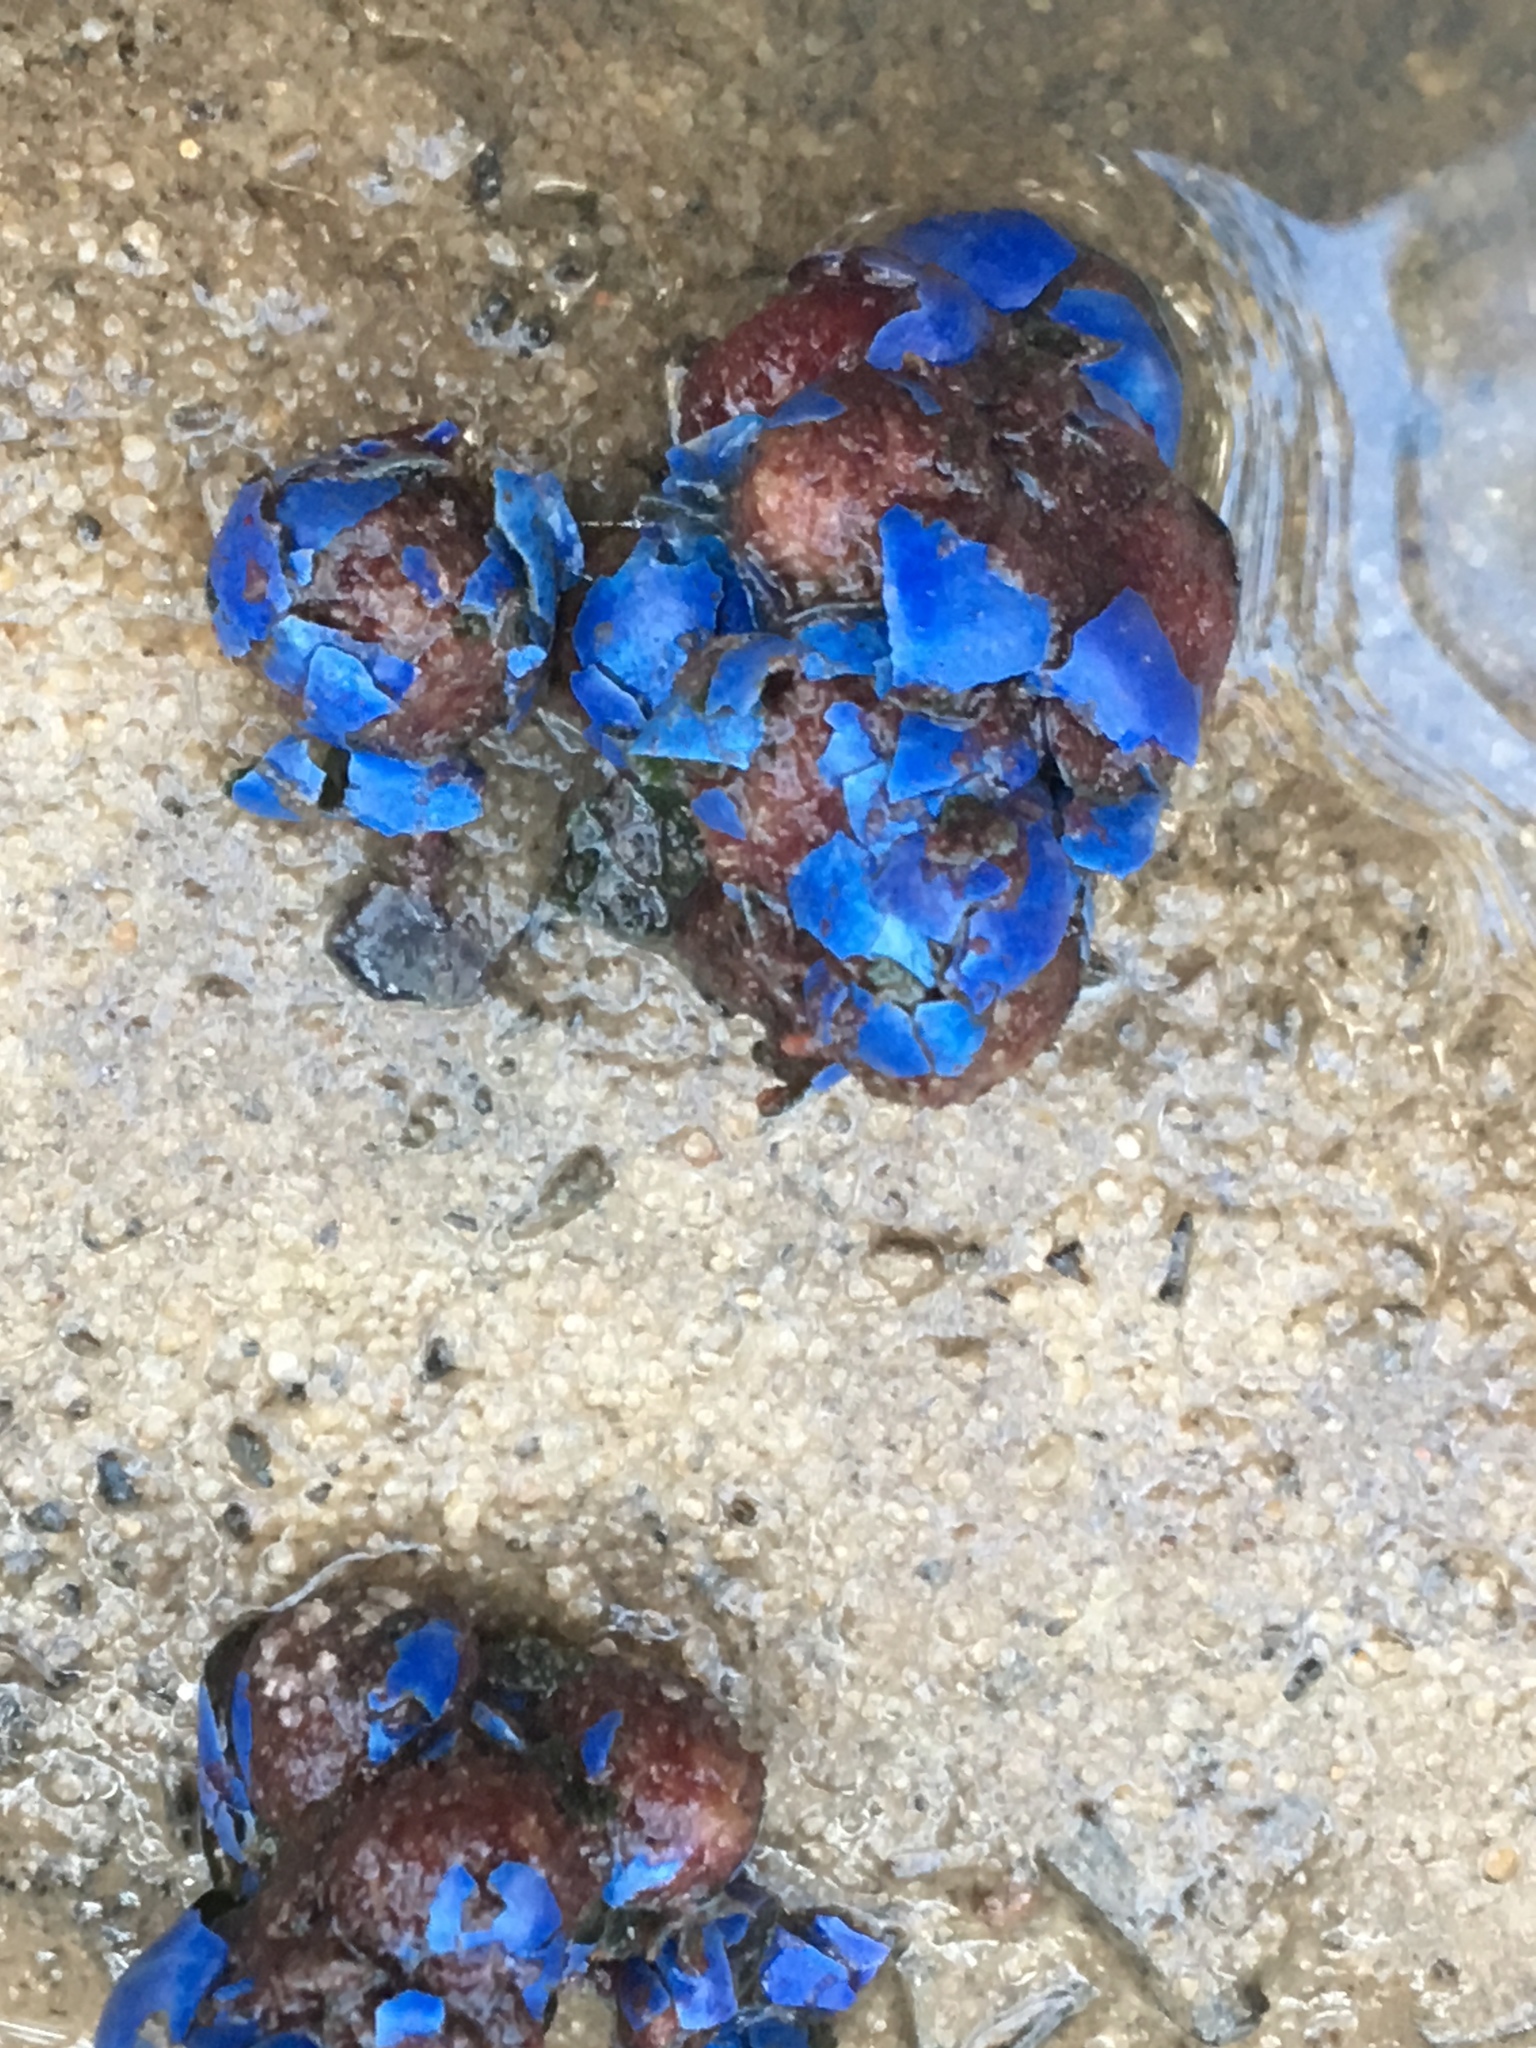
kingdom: Plantae
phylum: Tracheophyta
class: Magnoliopsida
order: Oxalidales
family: Elaeocarpaceae
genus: Elaeocarpus
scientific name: Elaeocarpus reticulatus
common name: Ash quandong
